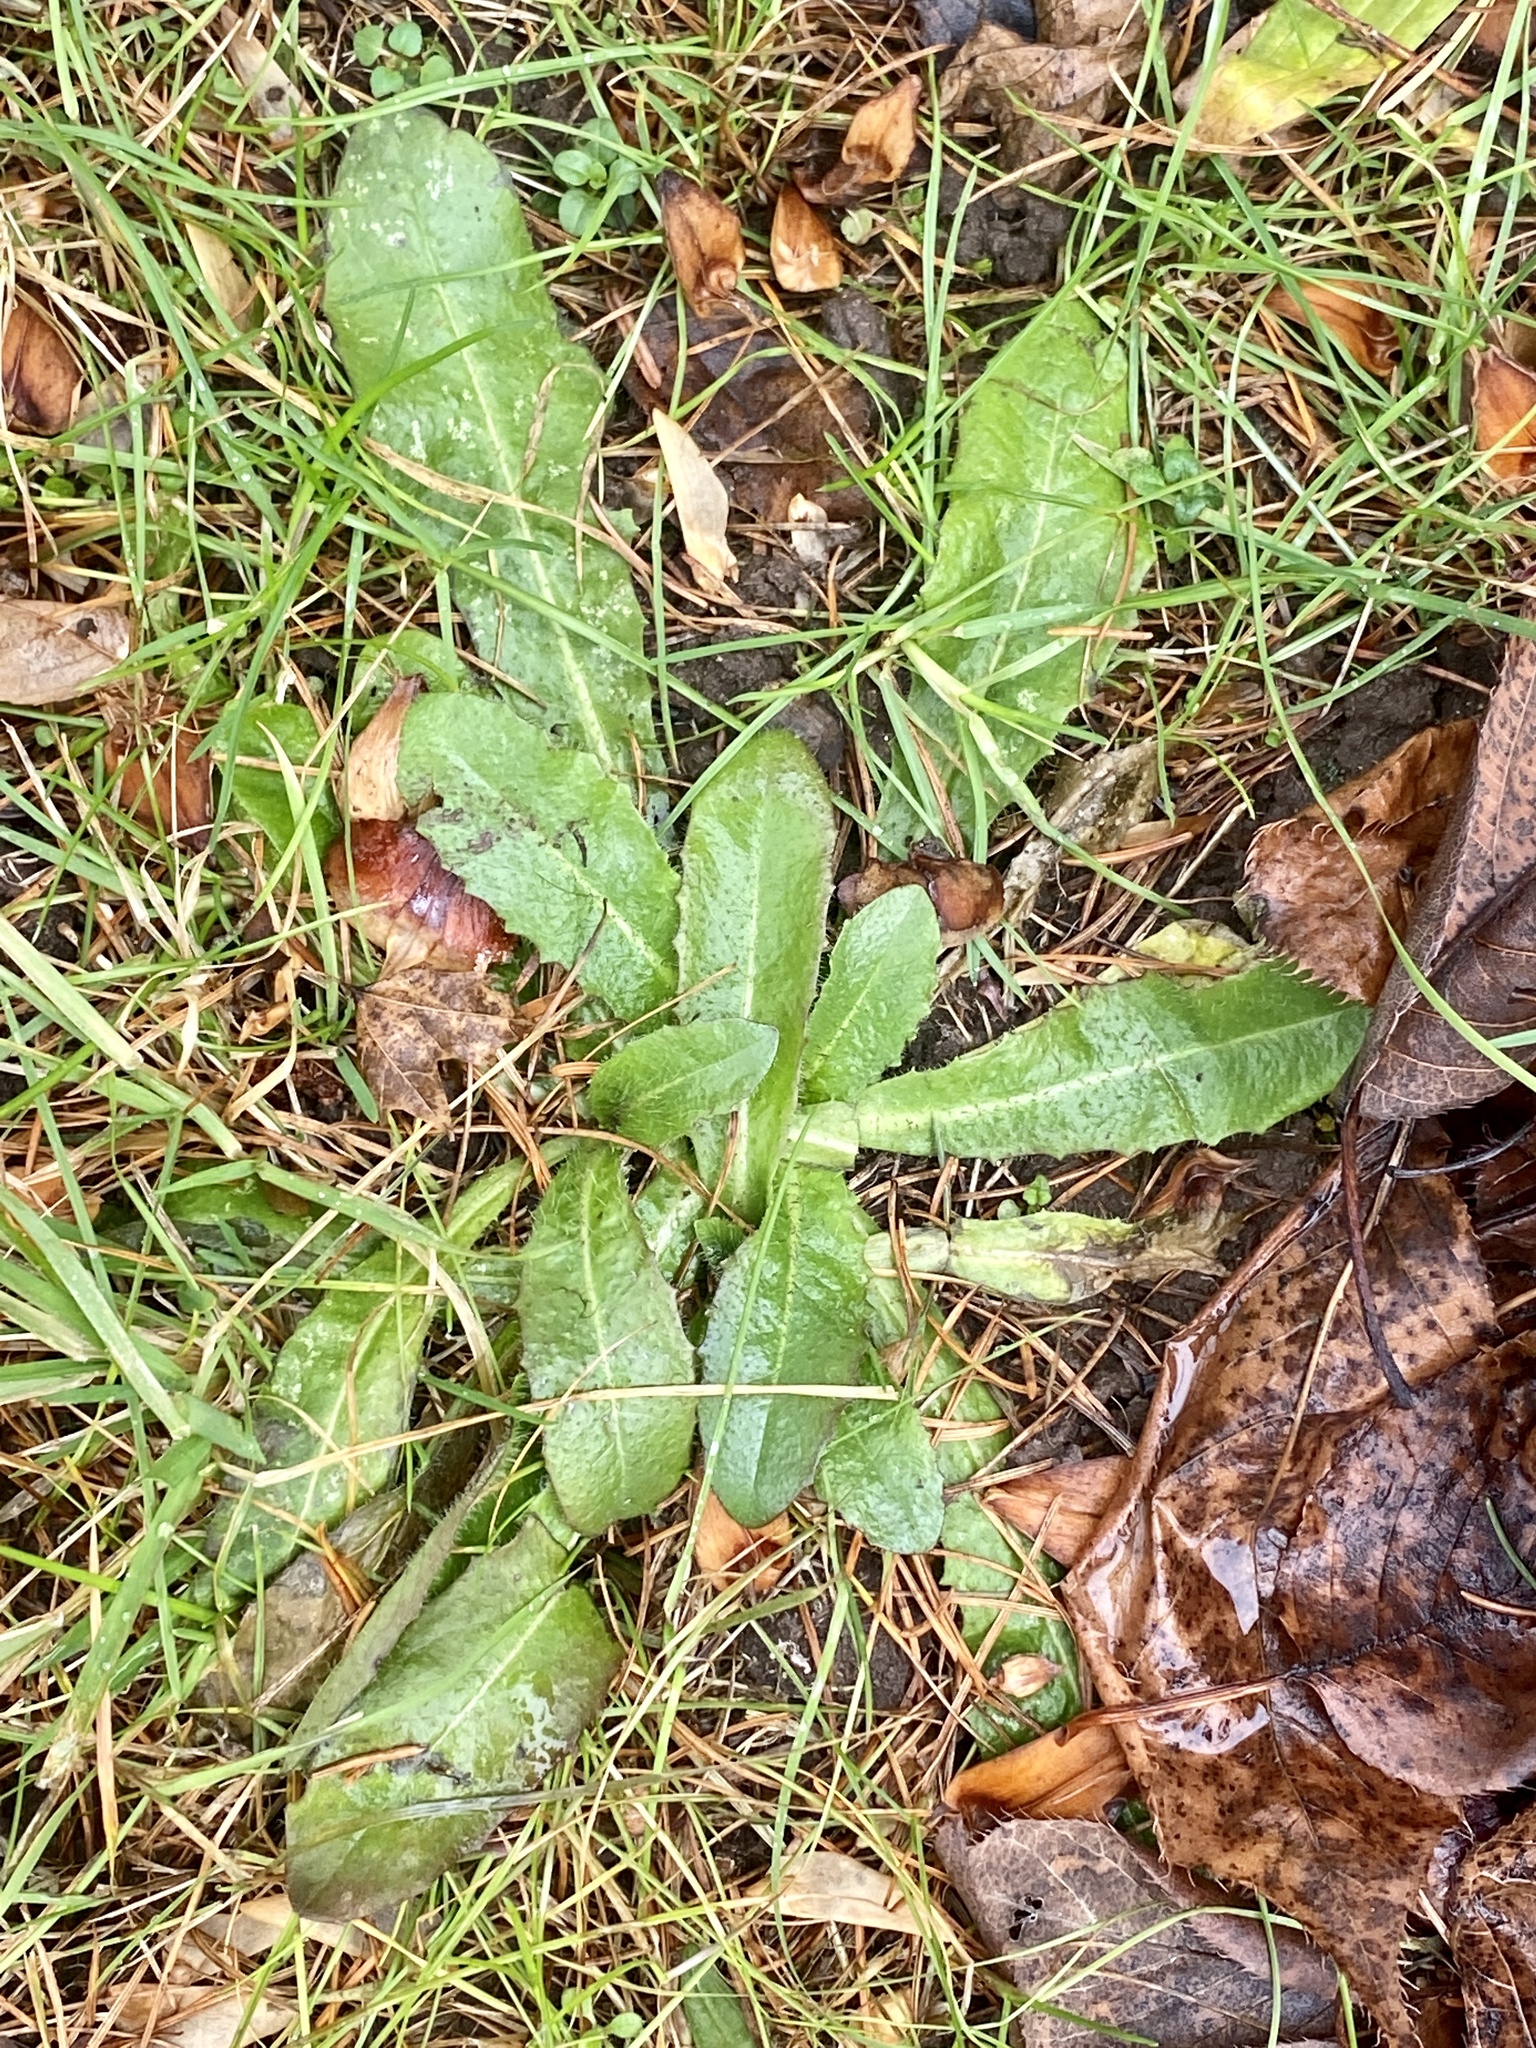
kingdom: Plantae
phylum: Tracheophyta
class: Magnoliopsida
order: Asterales
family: Asteraceae
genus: Hypochaeris
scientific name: Hypochaeris radicata
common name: Flatweed
